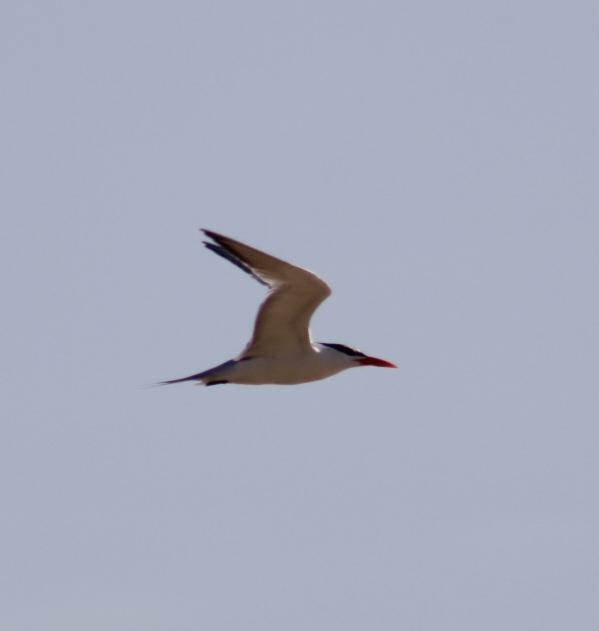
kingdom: Animalia
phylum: Chordata
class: Aves
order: Charadriiformes
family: Laridae
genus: Thalasseus
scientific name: Thalasseus maximus
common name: Royal tern
